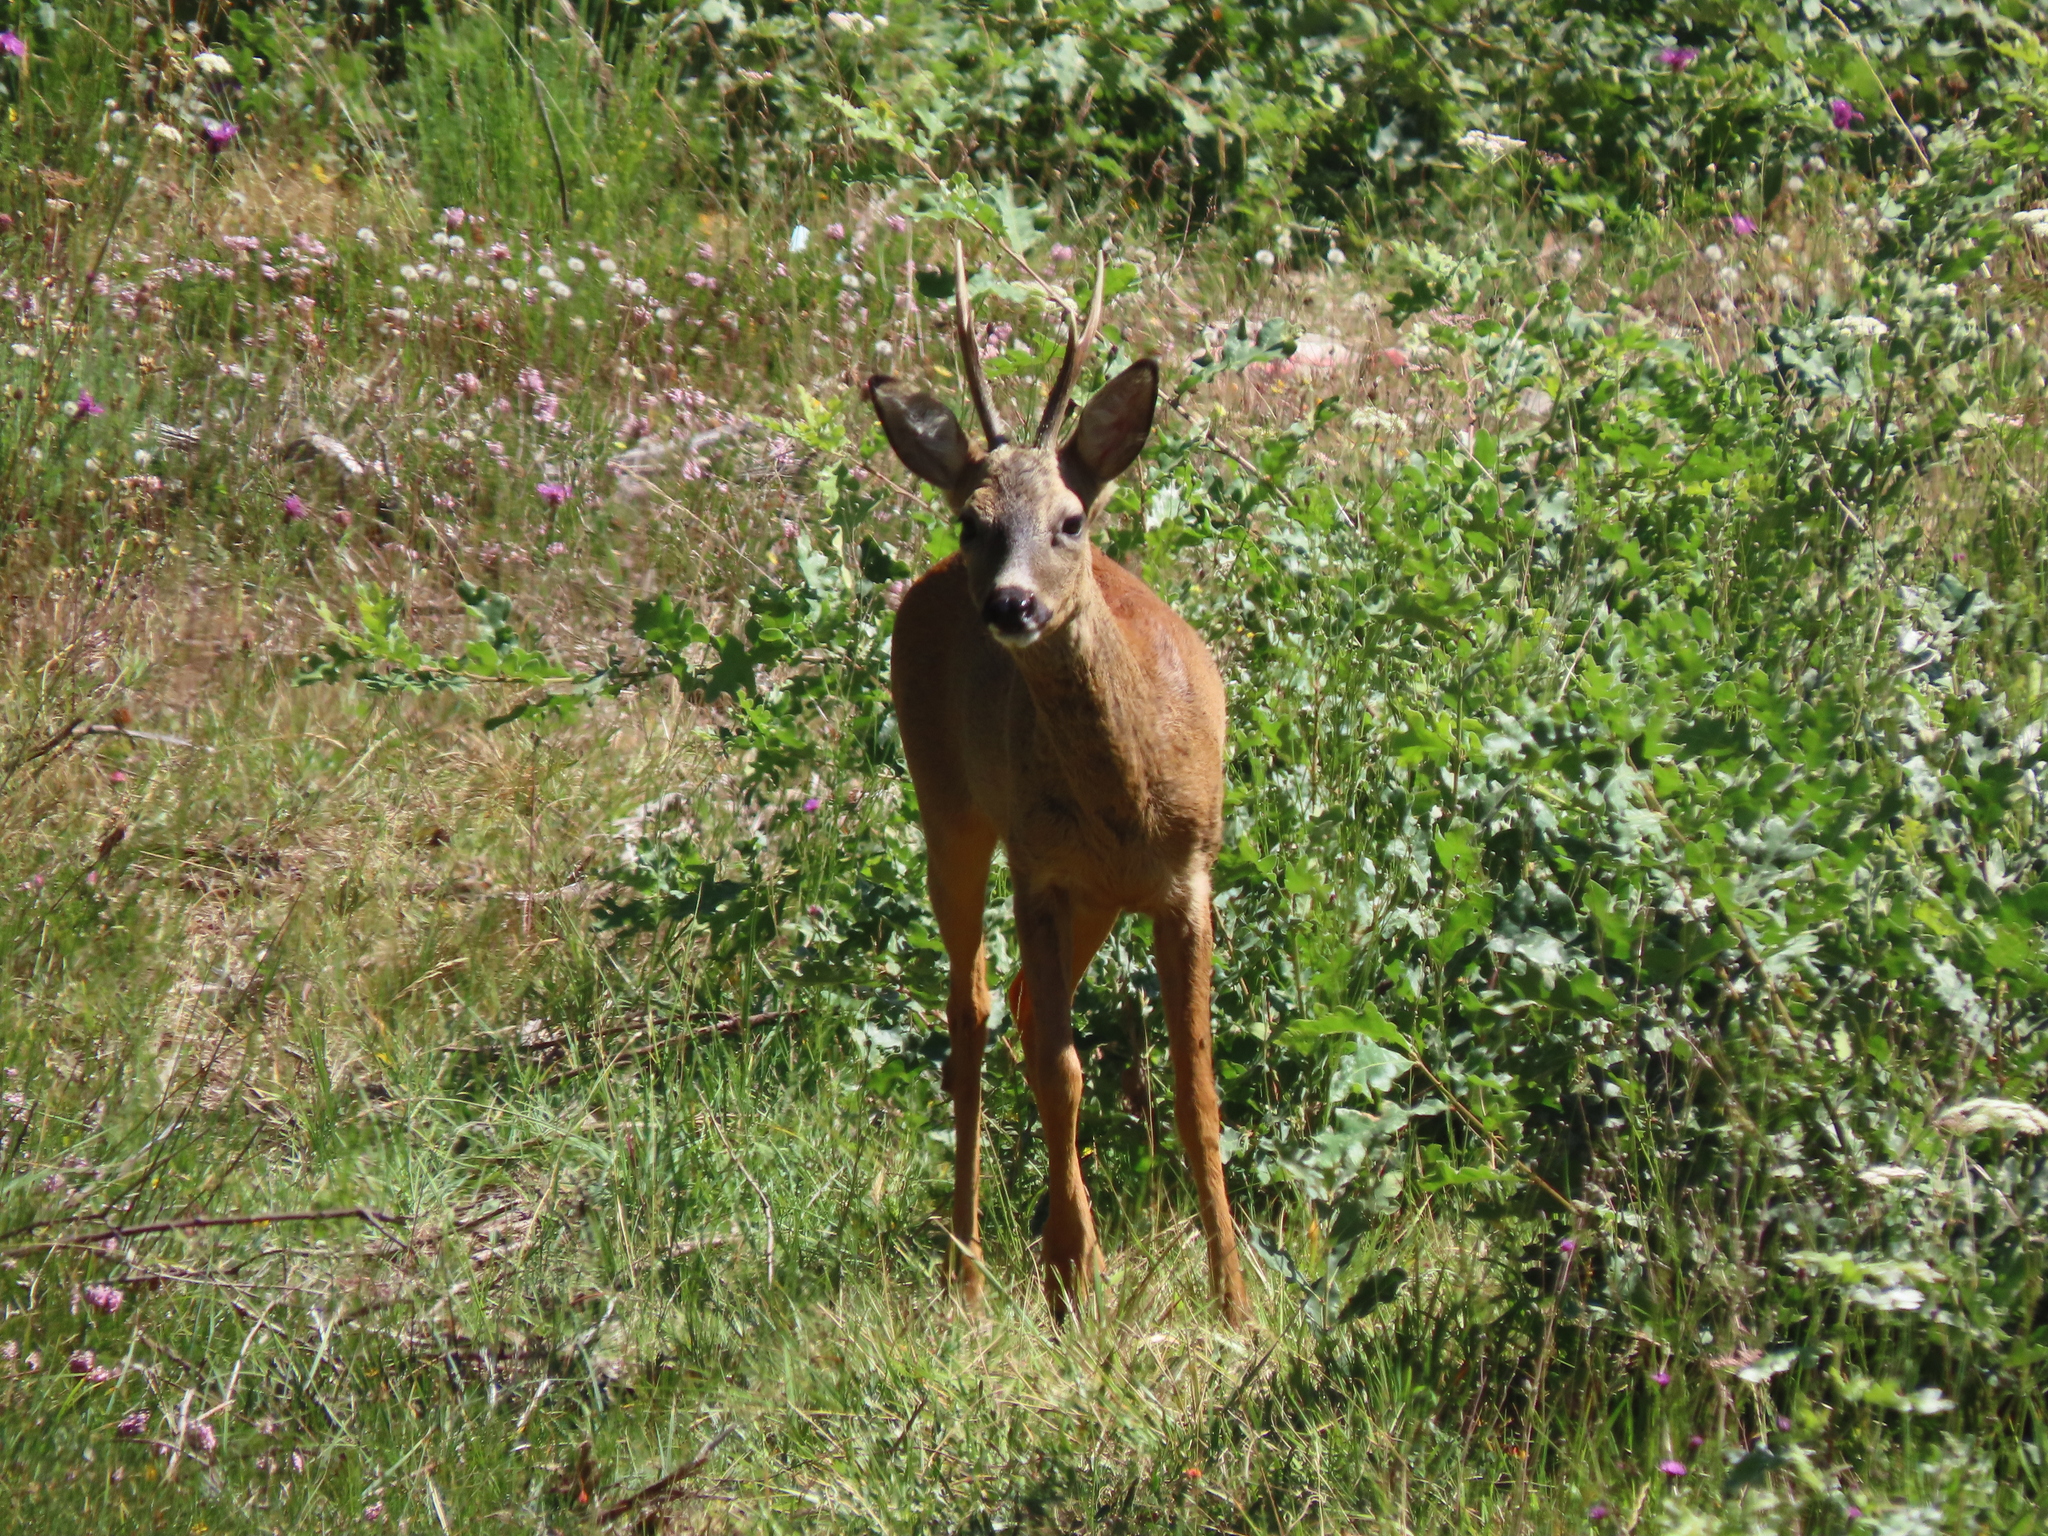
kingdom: Animalia
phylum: Chordata
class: Mammalia
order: Artiodactyla
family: Cervidae
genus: Capreolus
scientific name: Capreolus capreolus
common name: Western roe deer
